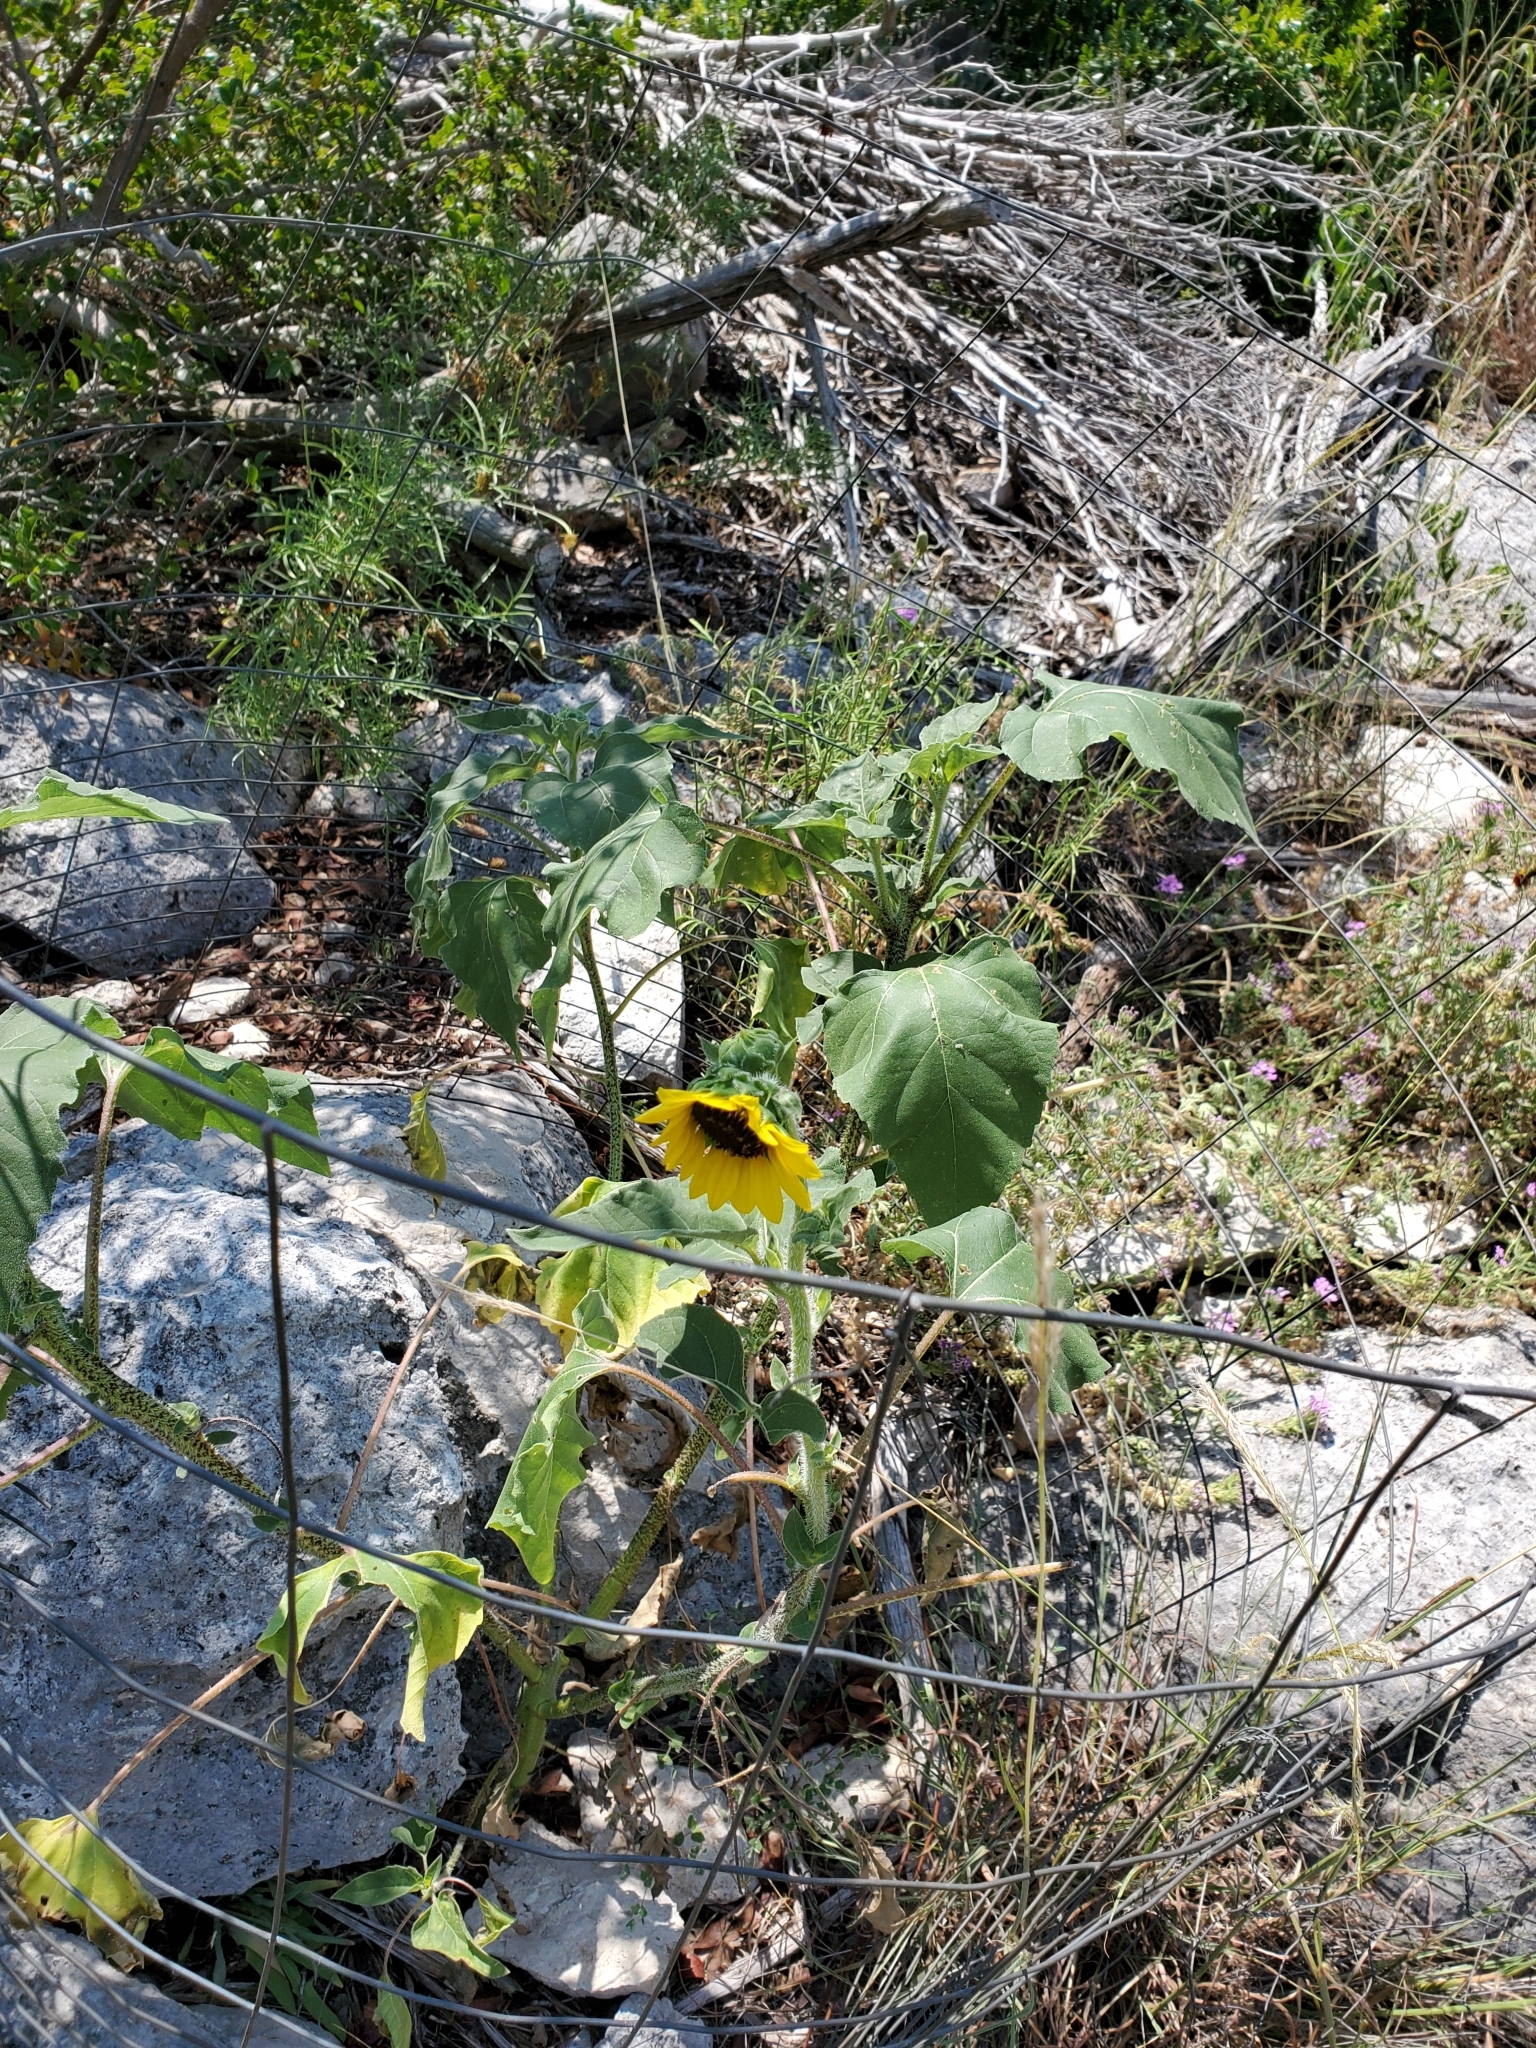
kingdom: Plantae
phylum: Tracheophyta
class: Magnoliopsida
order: Asterales
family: Asteraceae
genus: Helianthus
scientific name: Helianthus annuus
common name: Sunflower
